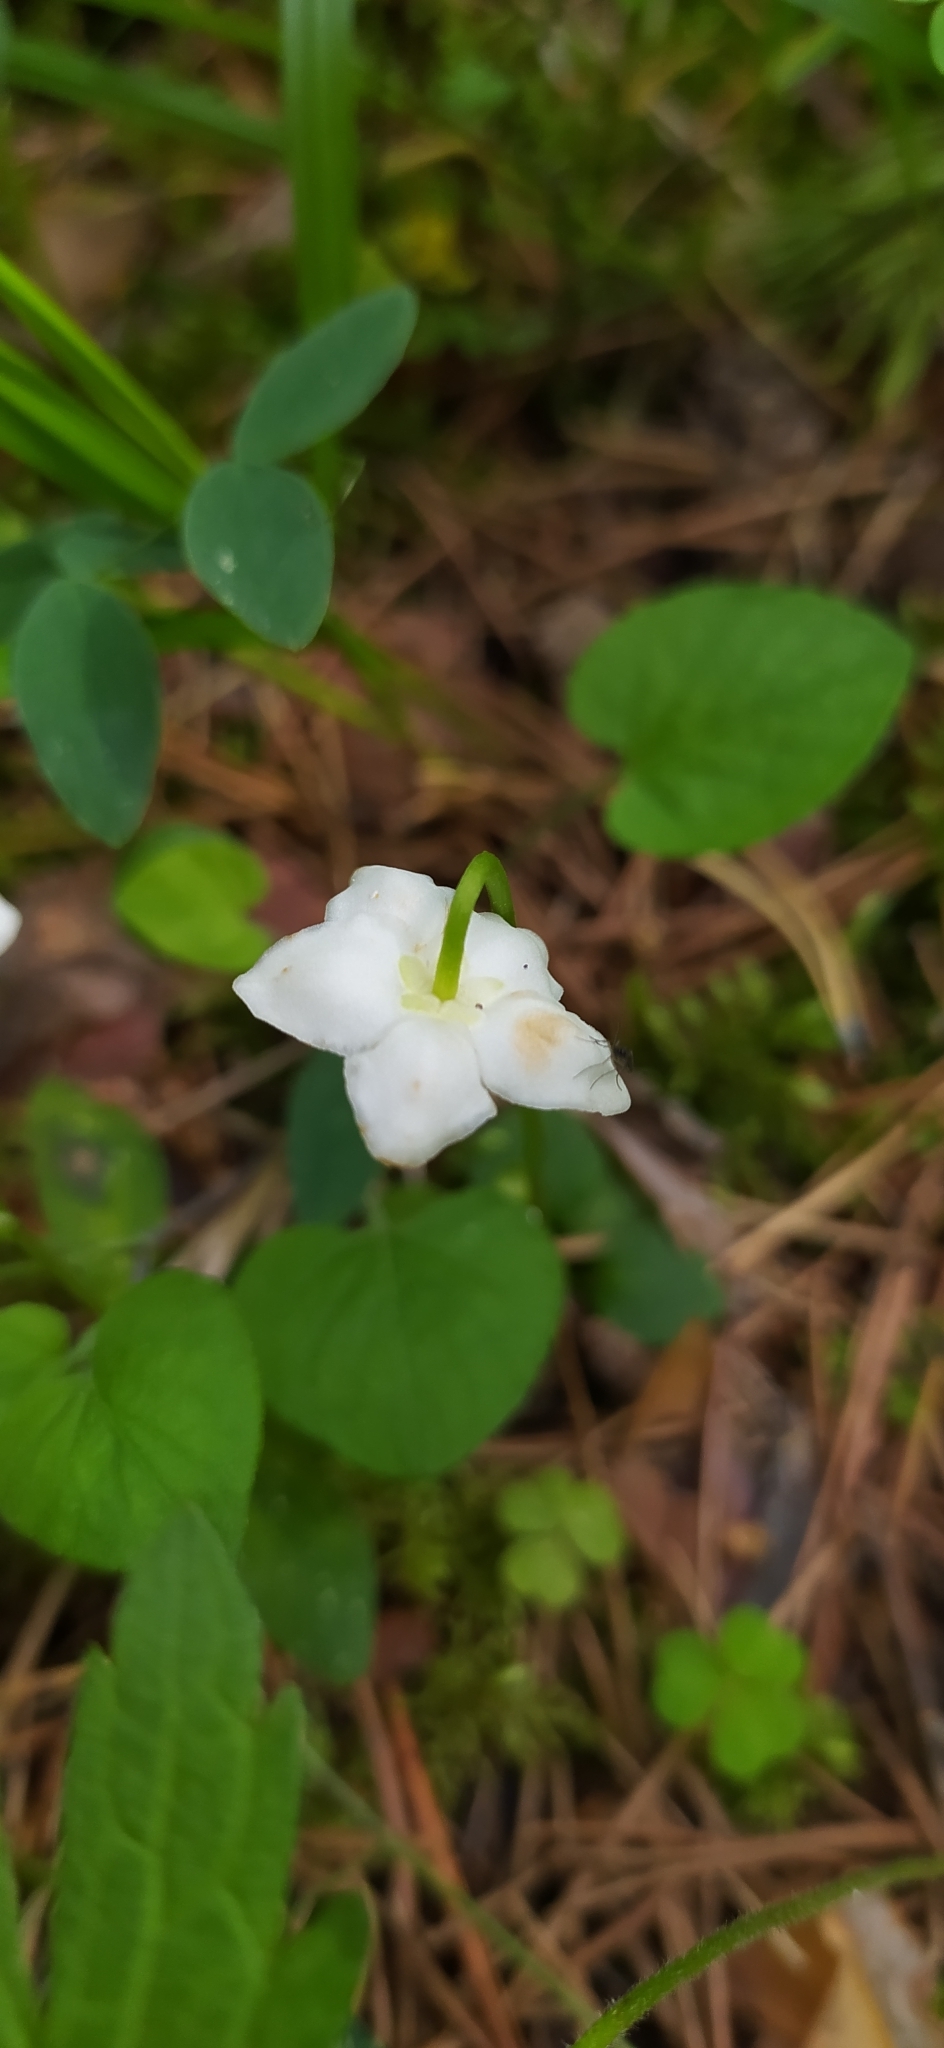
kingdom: Plantae
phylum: Tracheophyta
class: Magnoliopsida
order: Ericales
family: Ericaceae
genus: Moneses
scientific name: Moneses uniflora
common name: One-flowered wintergreen
